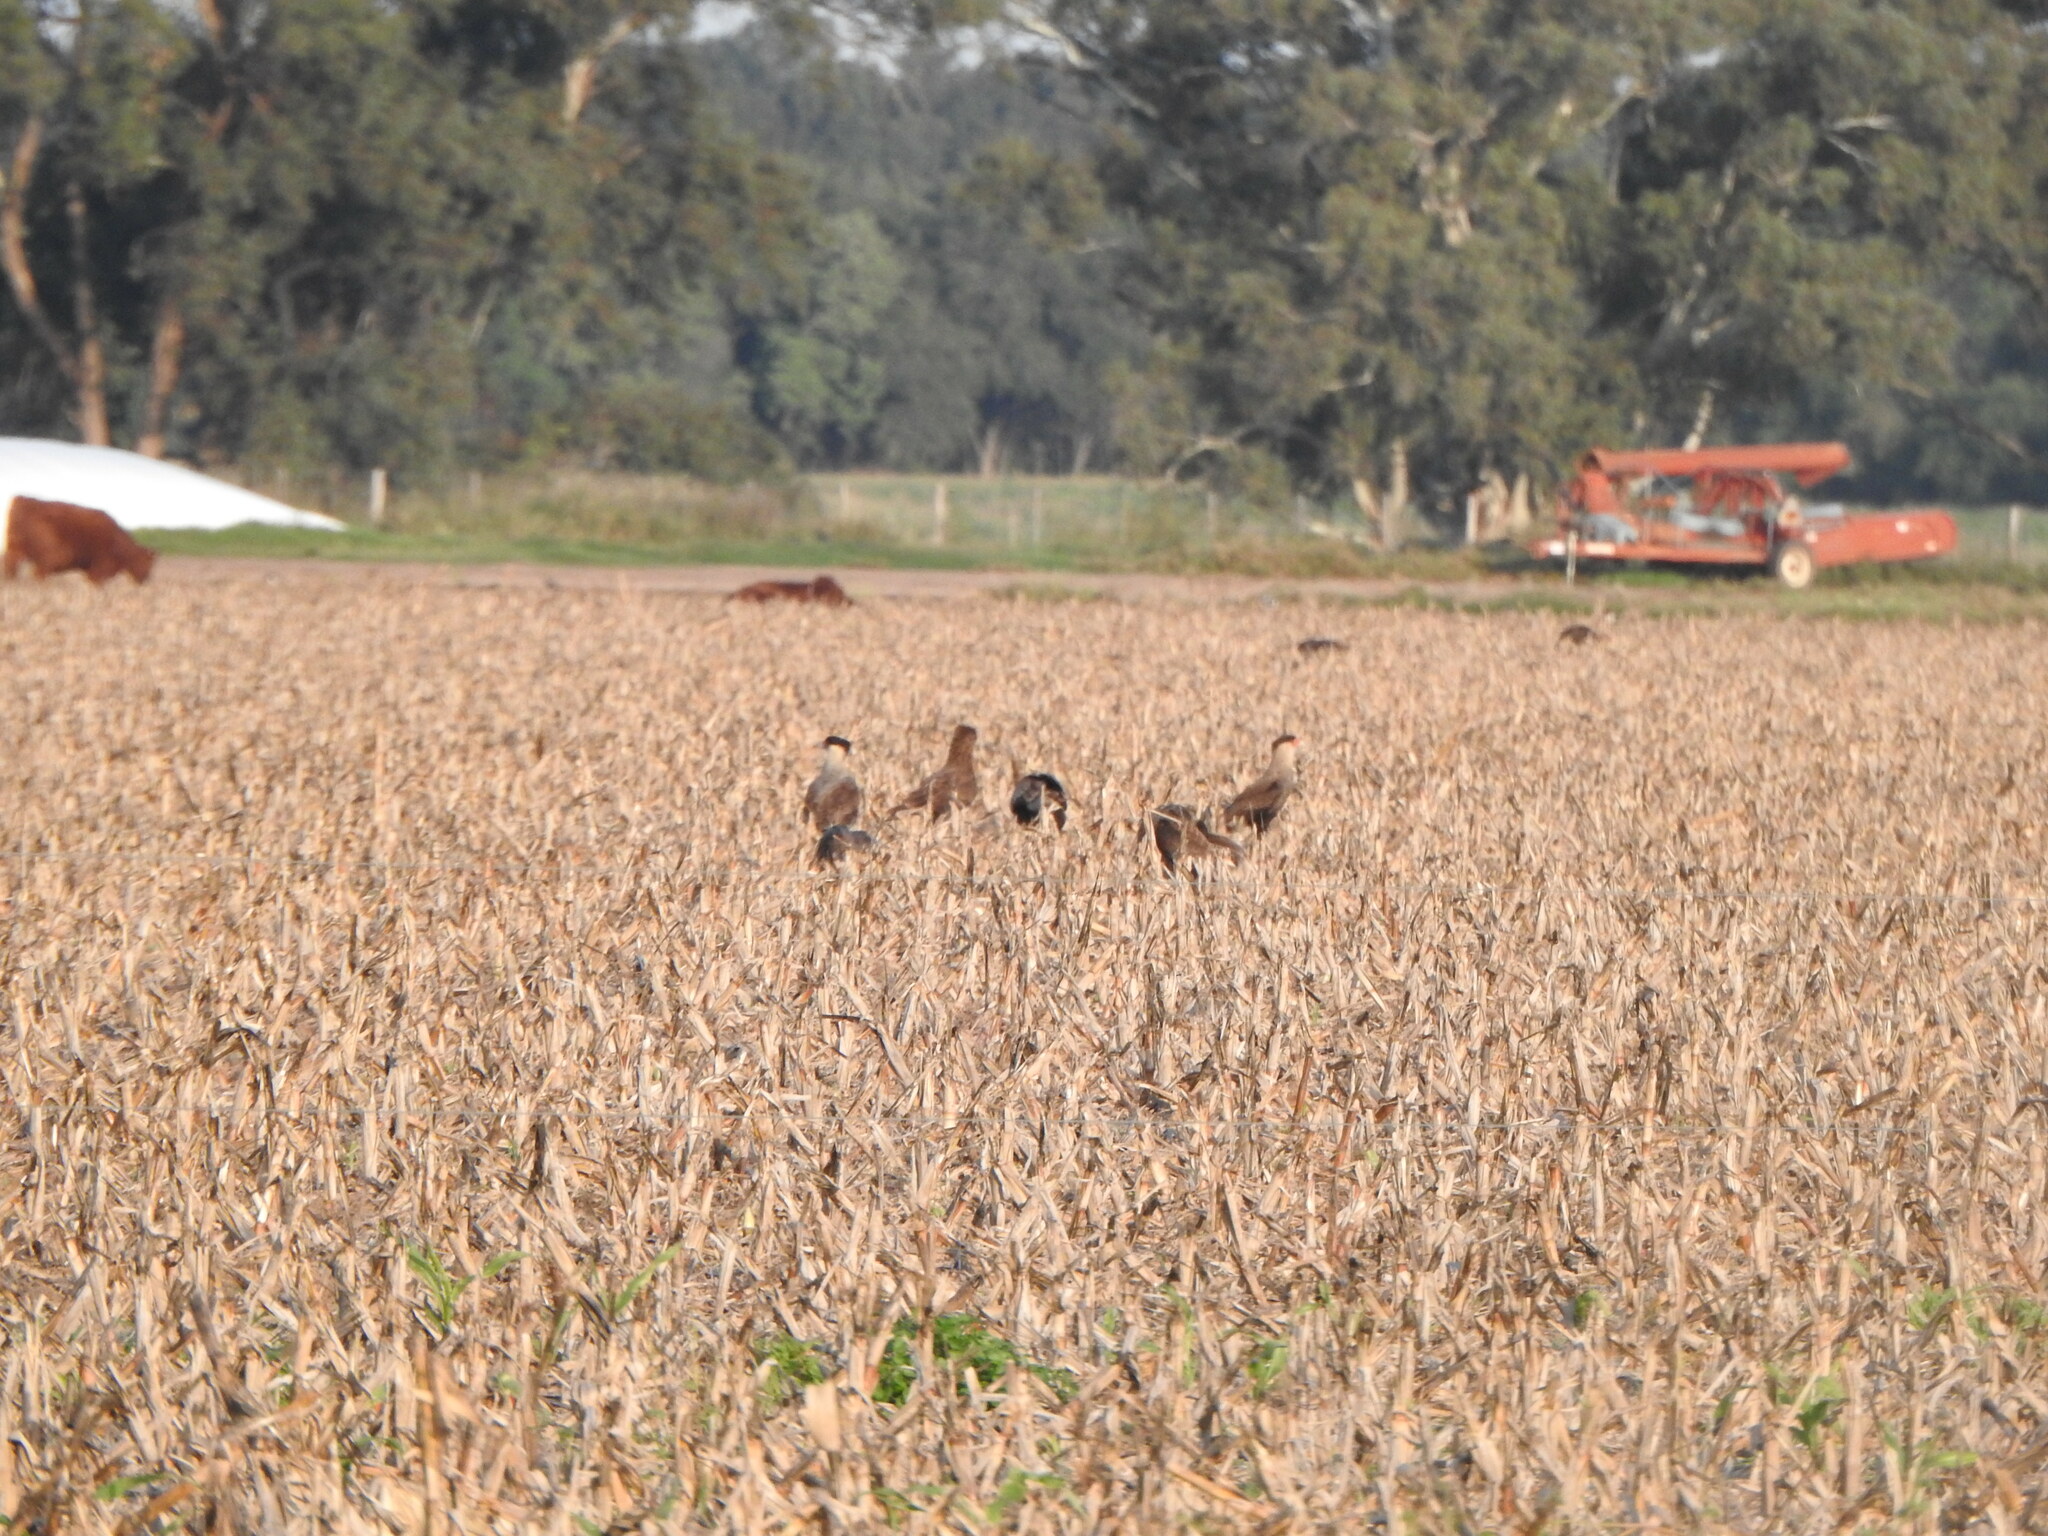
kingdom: Animalia
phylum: Chordata
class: Aves
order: Falconiformes
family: Falconidae
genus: Caracara
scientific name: Caracara plancus
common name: Southern caracara
